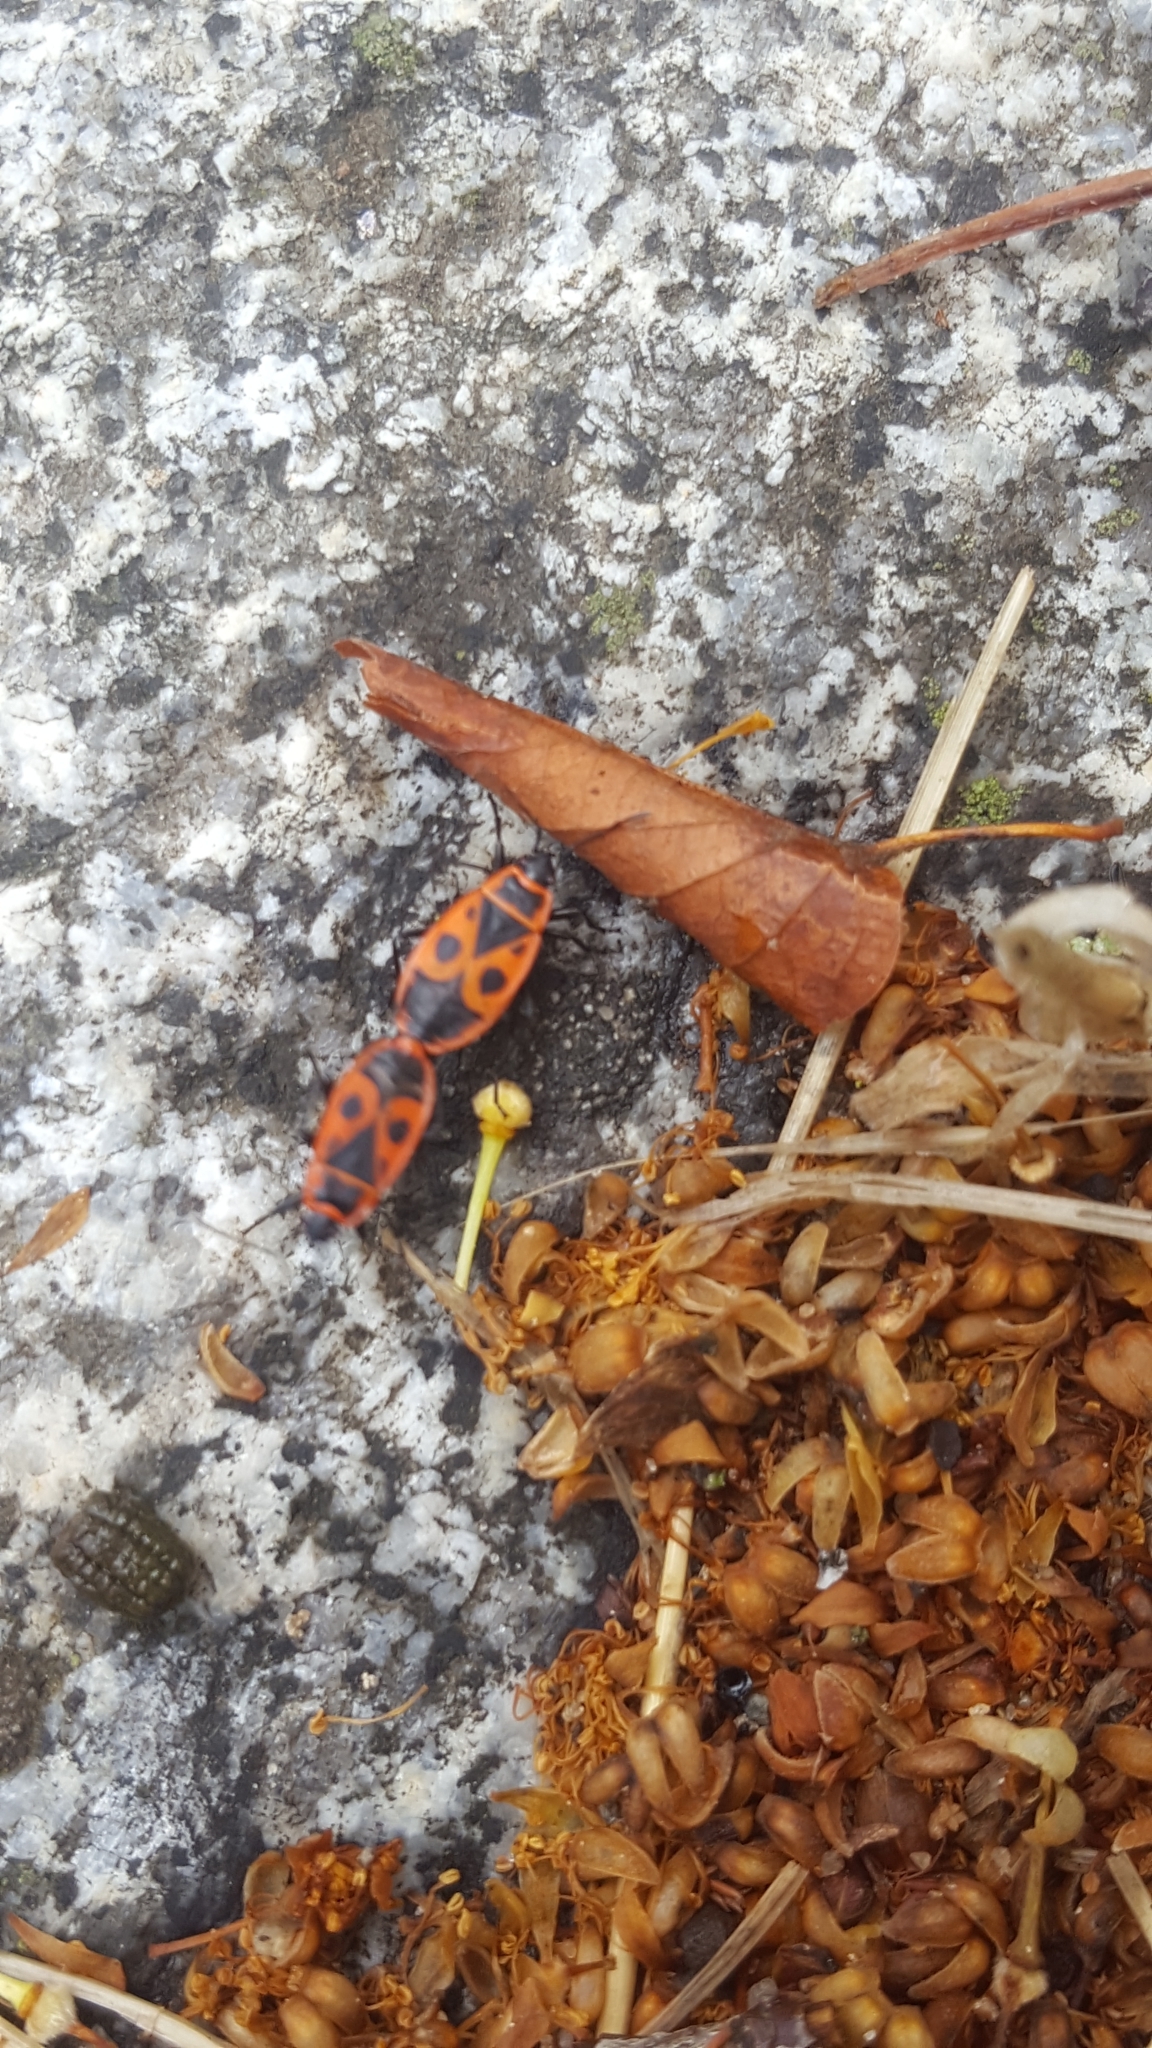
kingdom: Animalia
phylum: Arthropoda
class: Insecta
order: Hemiptera
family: Pyrrhocoridae
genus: Pyrrhocoris
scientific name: Pyrrhocoris apterus
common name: Firebug
